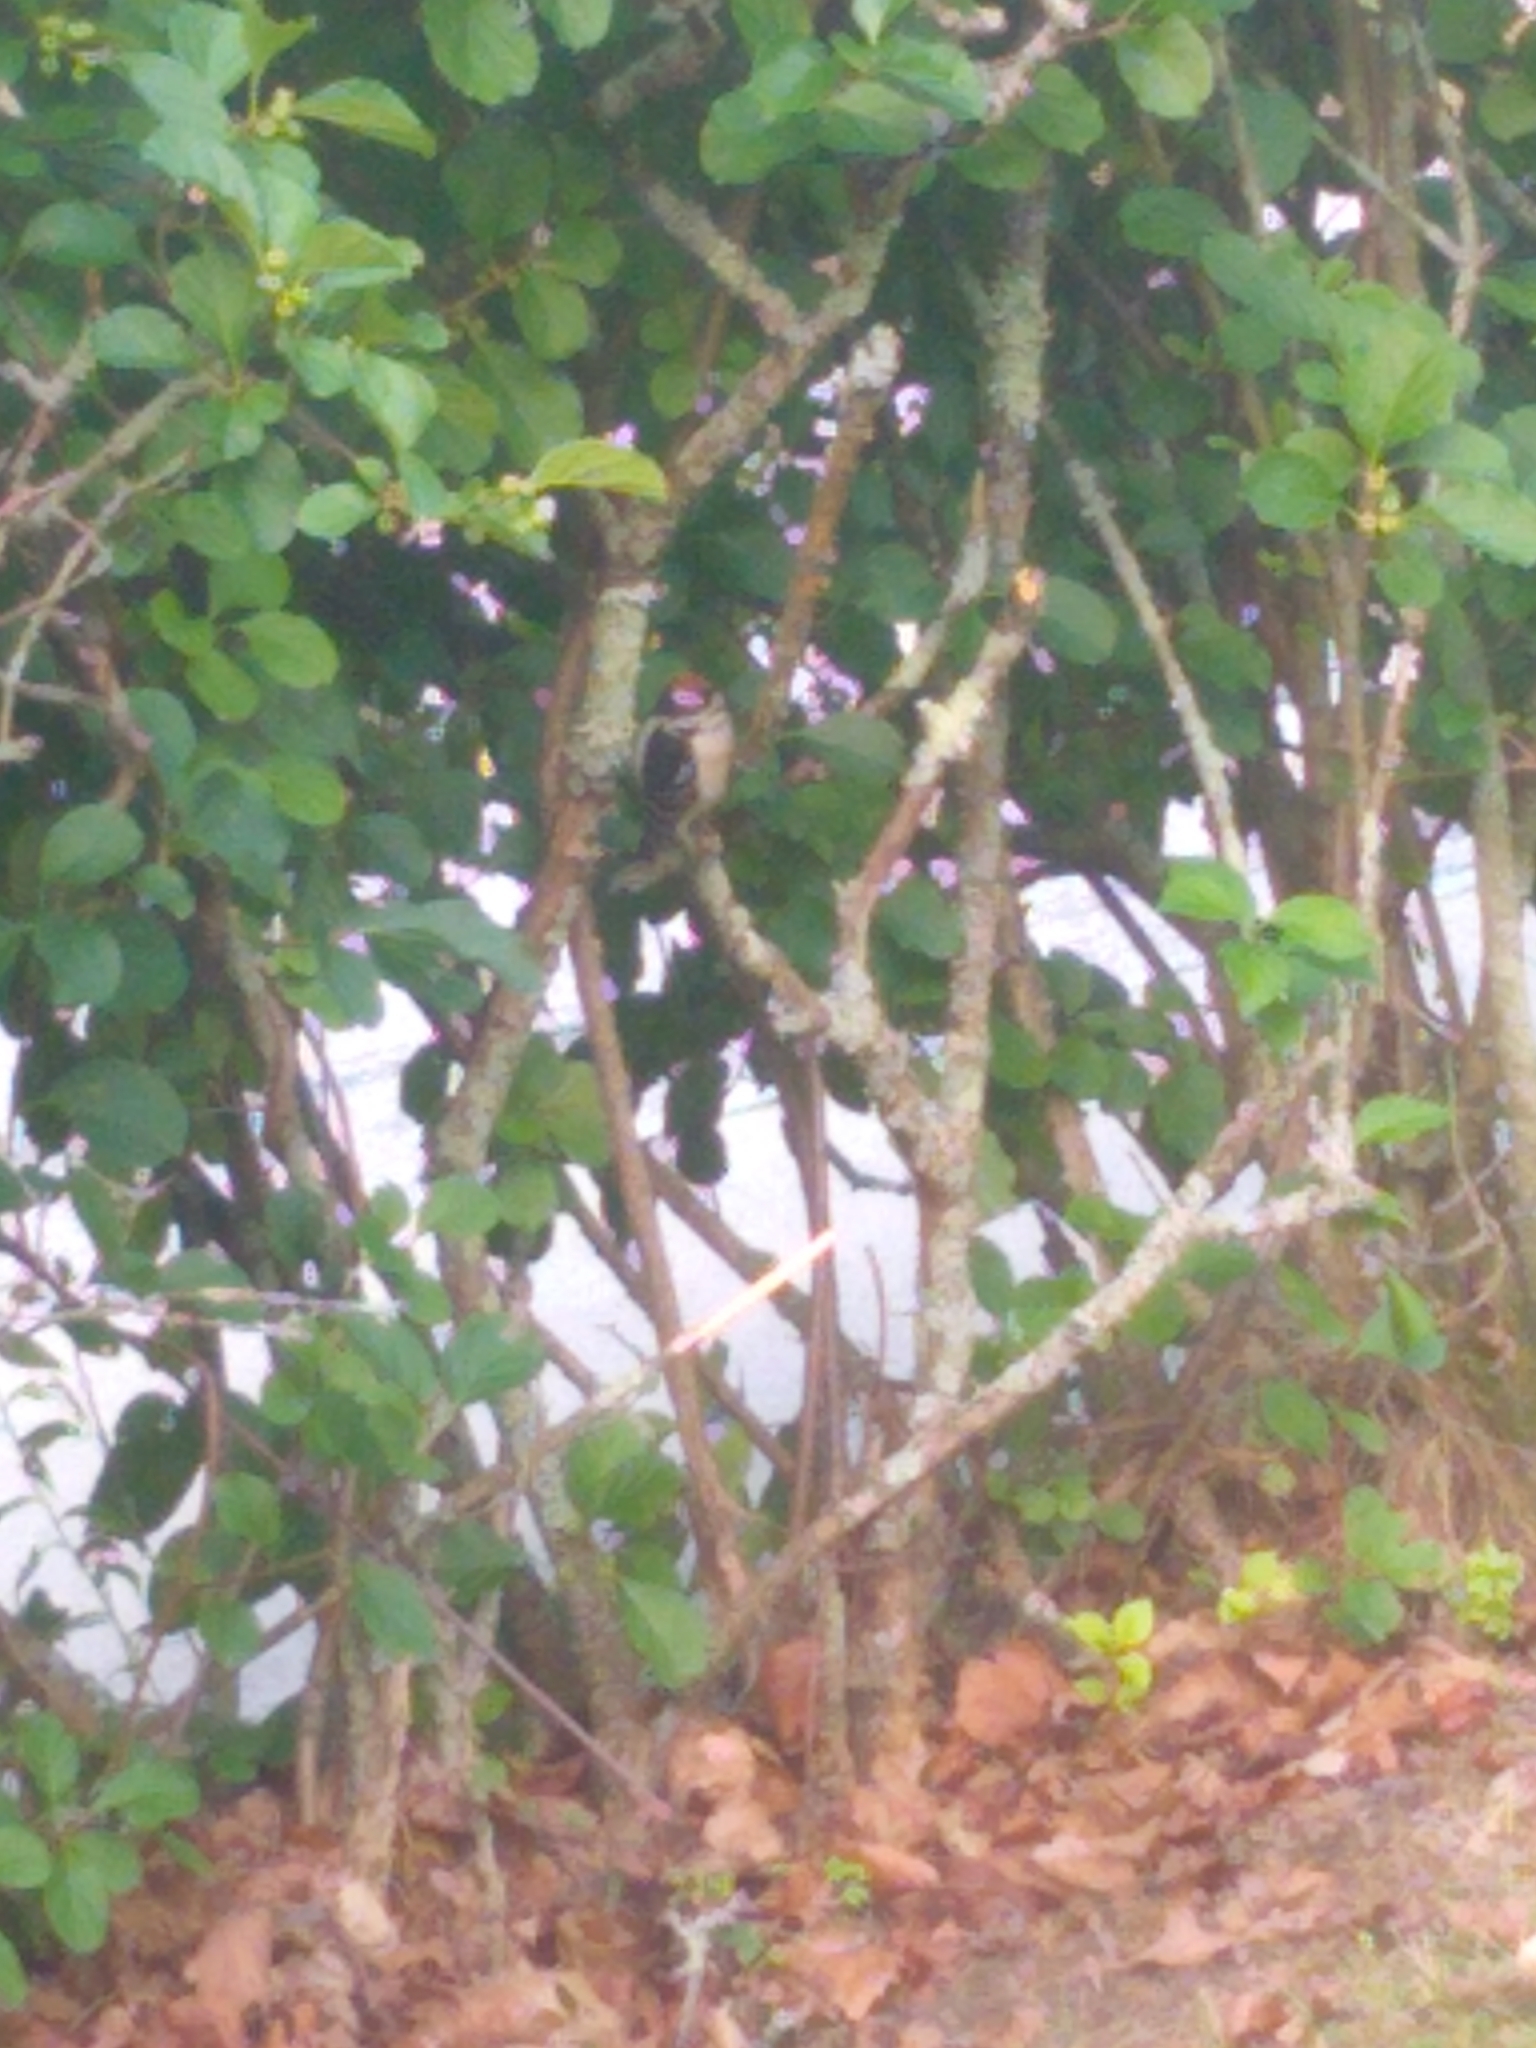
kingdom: Animalia
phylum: Chordata
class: Aves
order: Piciformes
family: Picidae
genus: Dryobates
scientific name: Dryobates pubescens
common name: Downy woodpecker
